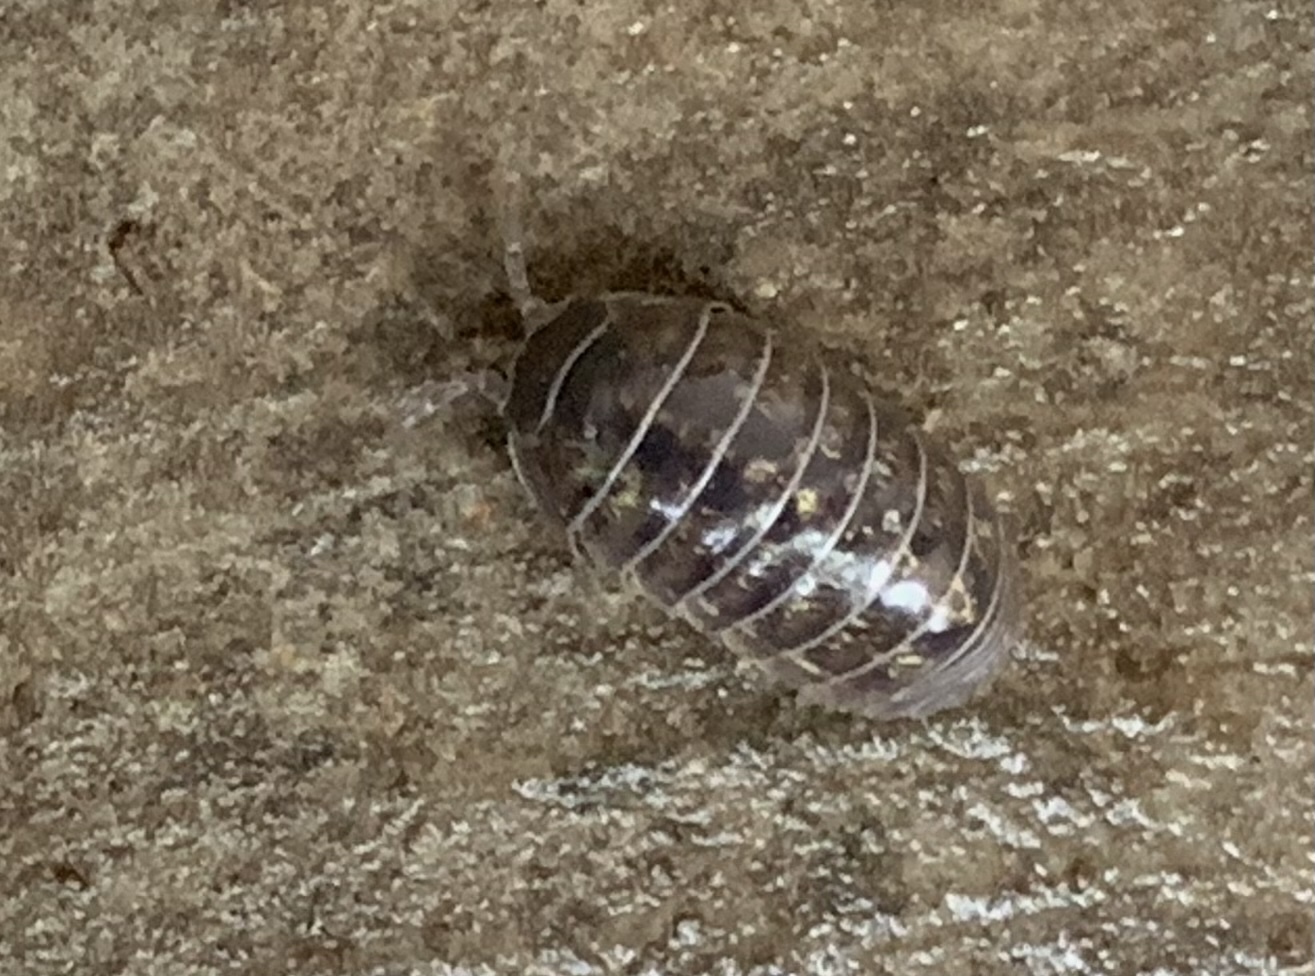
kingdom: Animalia
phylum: Arthropoda
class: Malacostraca
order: Isopoda
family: Armadillidiidae
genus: Armadillidium
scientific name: Armadillidium vulgare
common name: Common pill woodlouse
